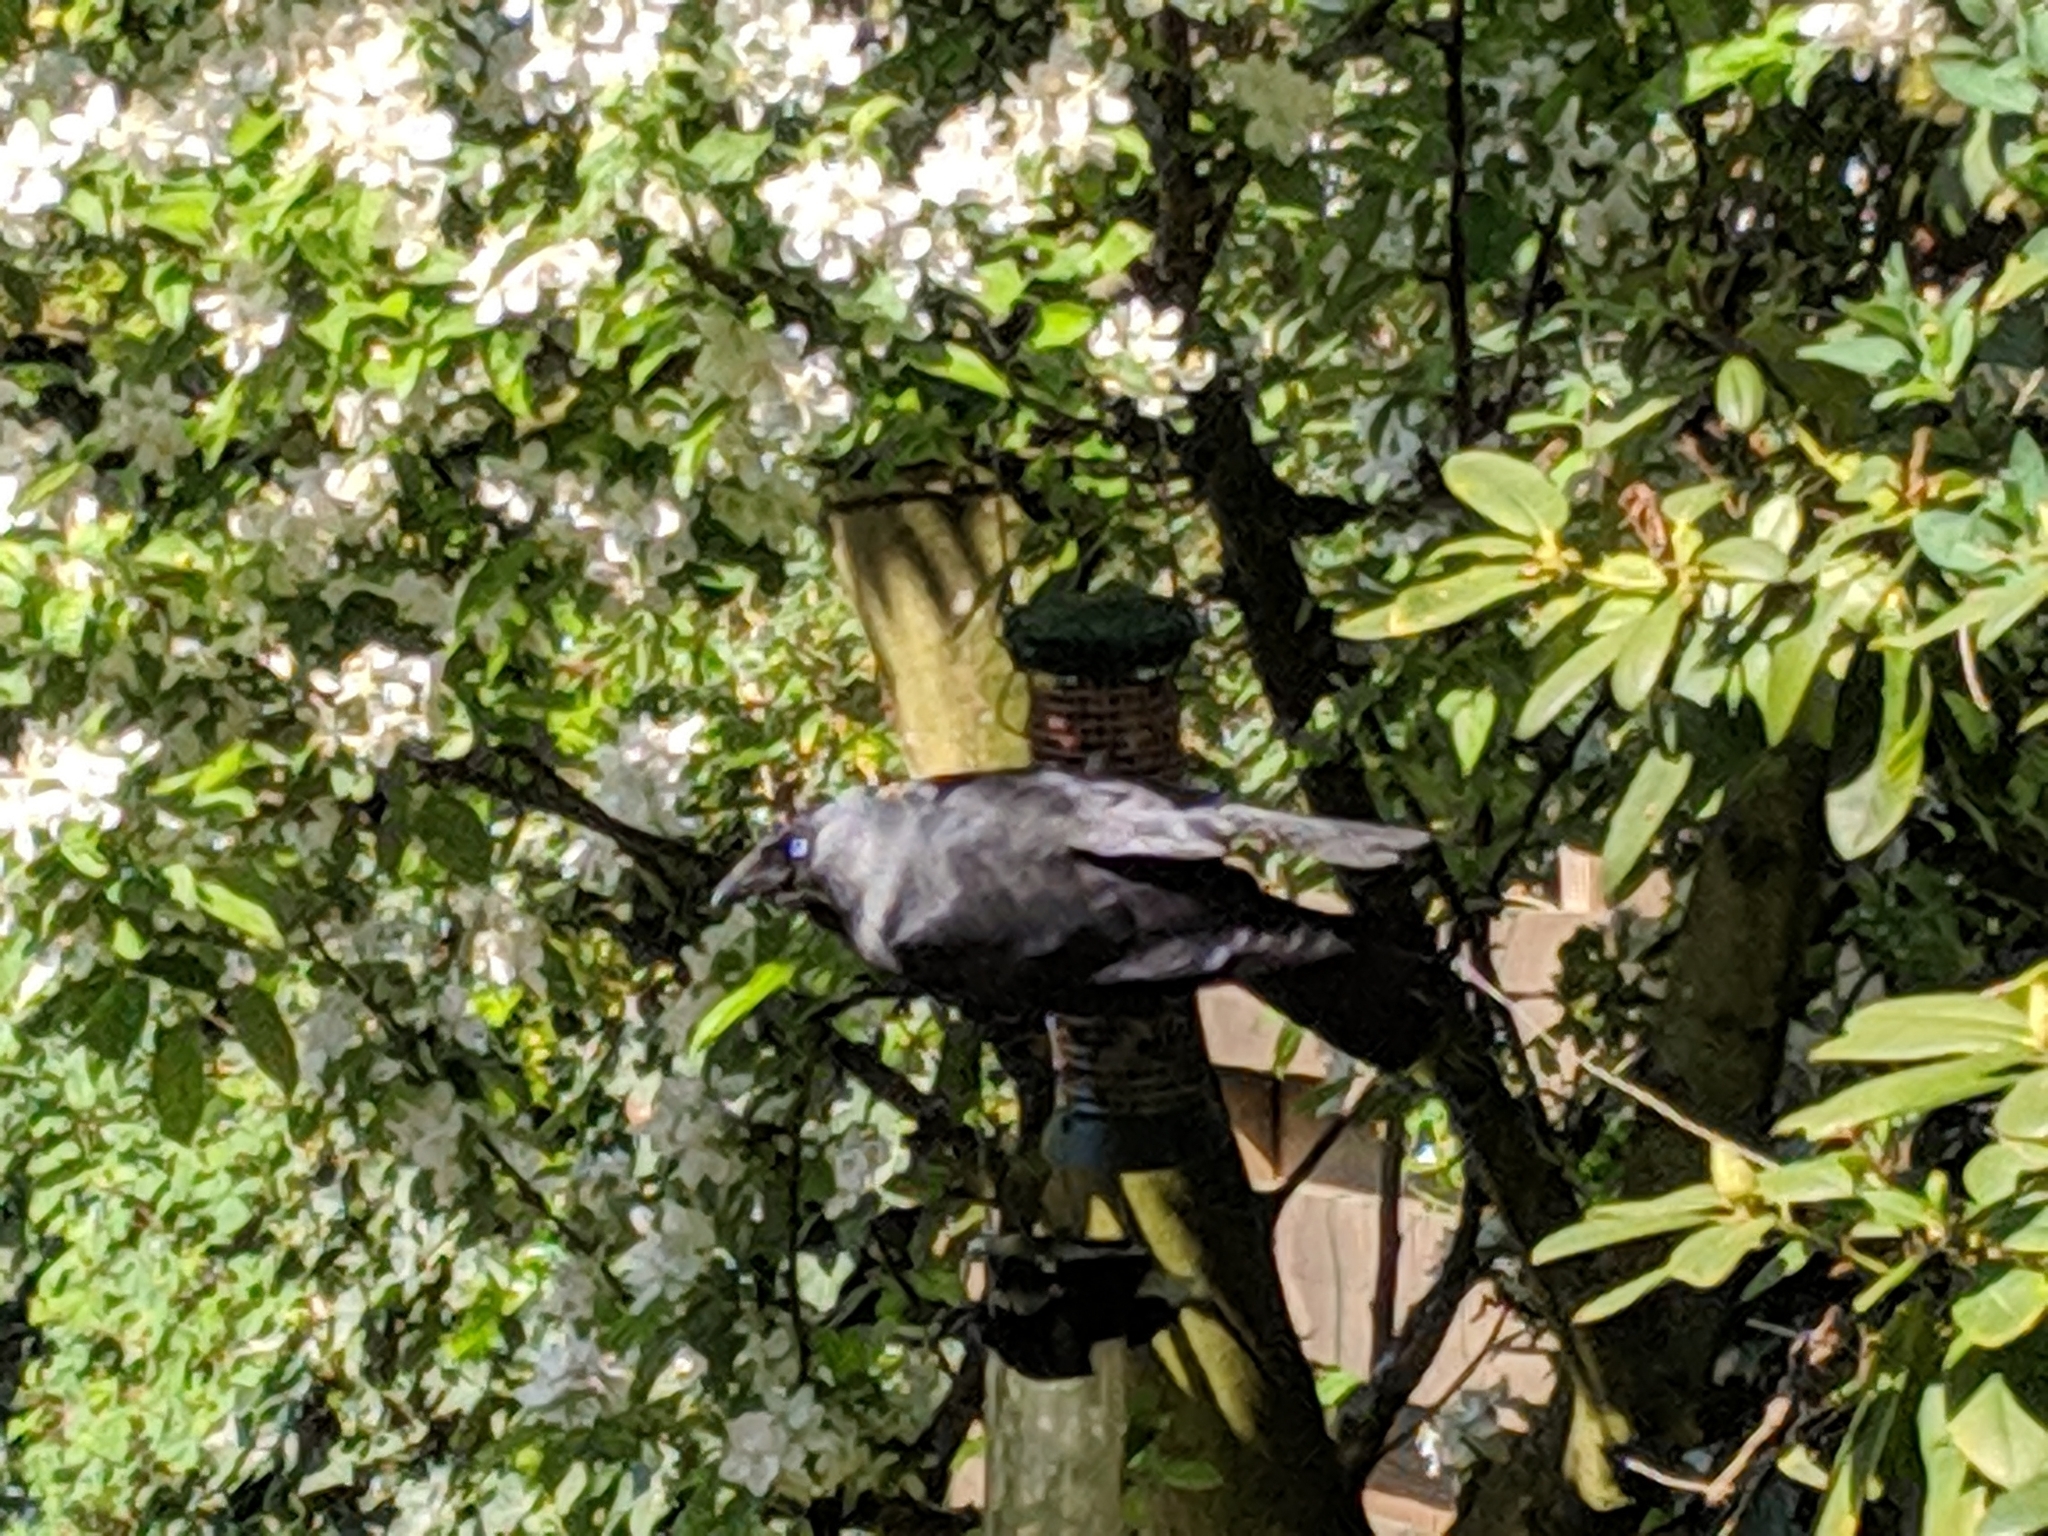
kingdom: Animalia
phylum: Chordata
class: Aves
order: Passeriformes
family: Corvidae
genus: Coloeus
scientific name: Coloeus monedula
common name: Western jackdaw
